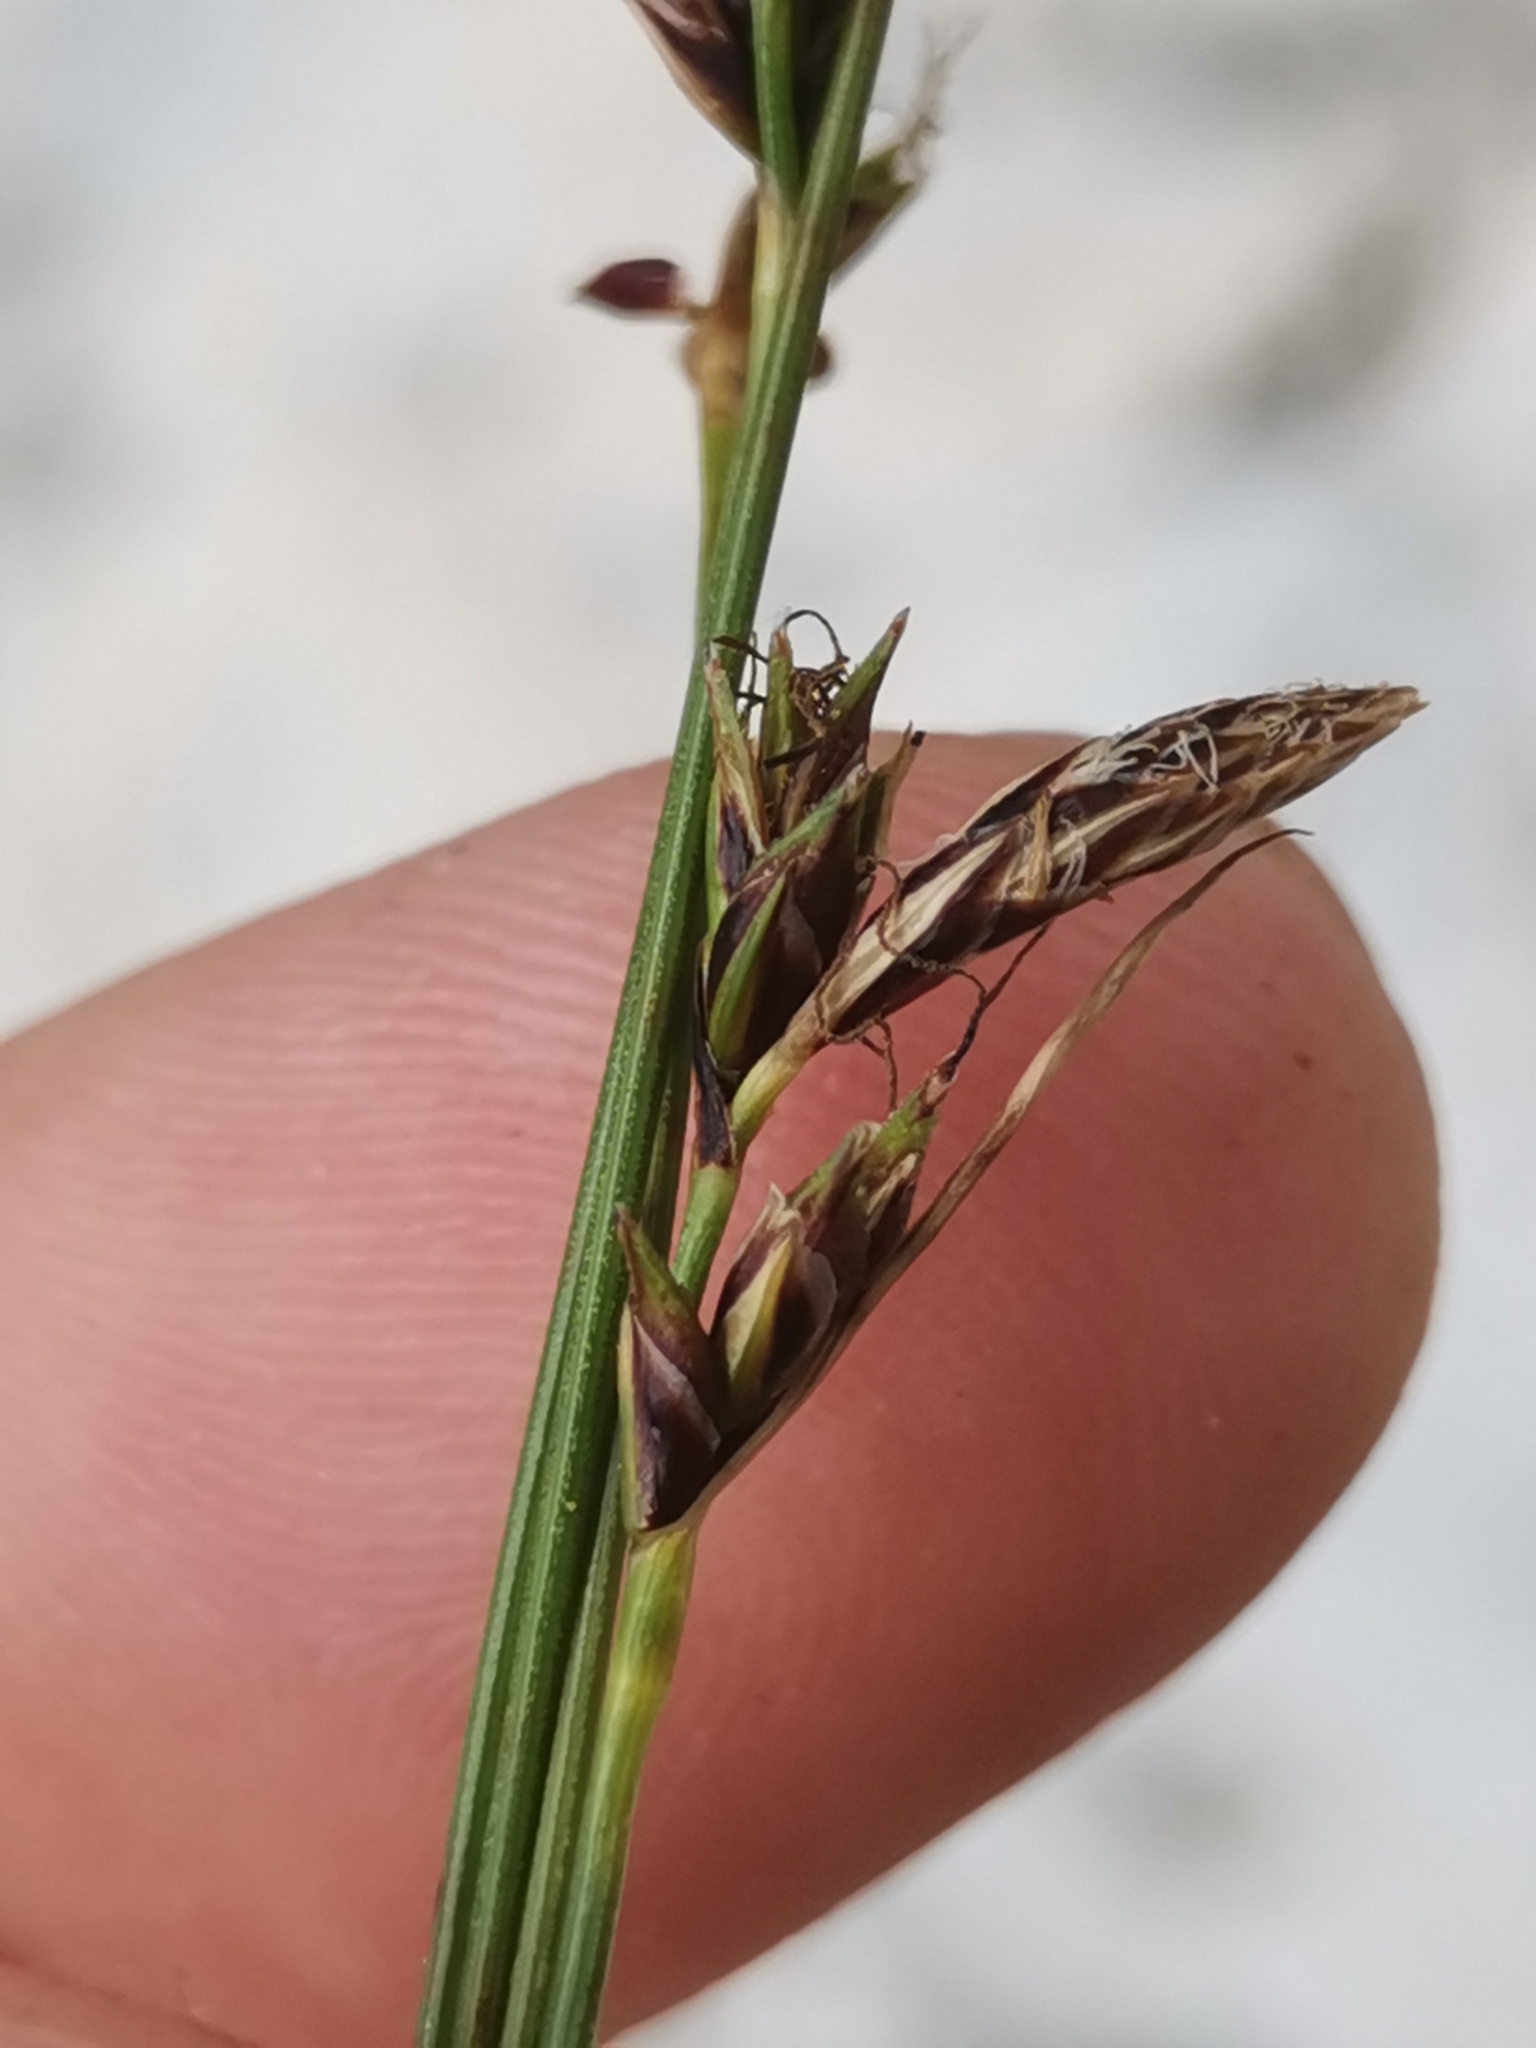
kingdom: Plantae
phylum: Tracheophyta
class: Liliopsida
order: Poales
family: Cyperaceae
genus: Carex
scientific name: Carex mucronata
